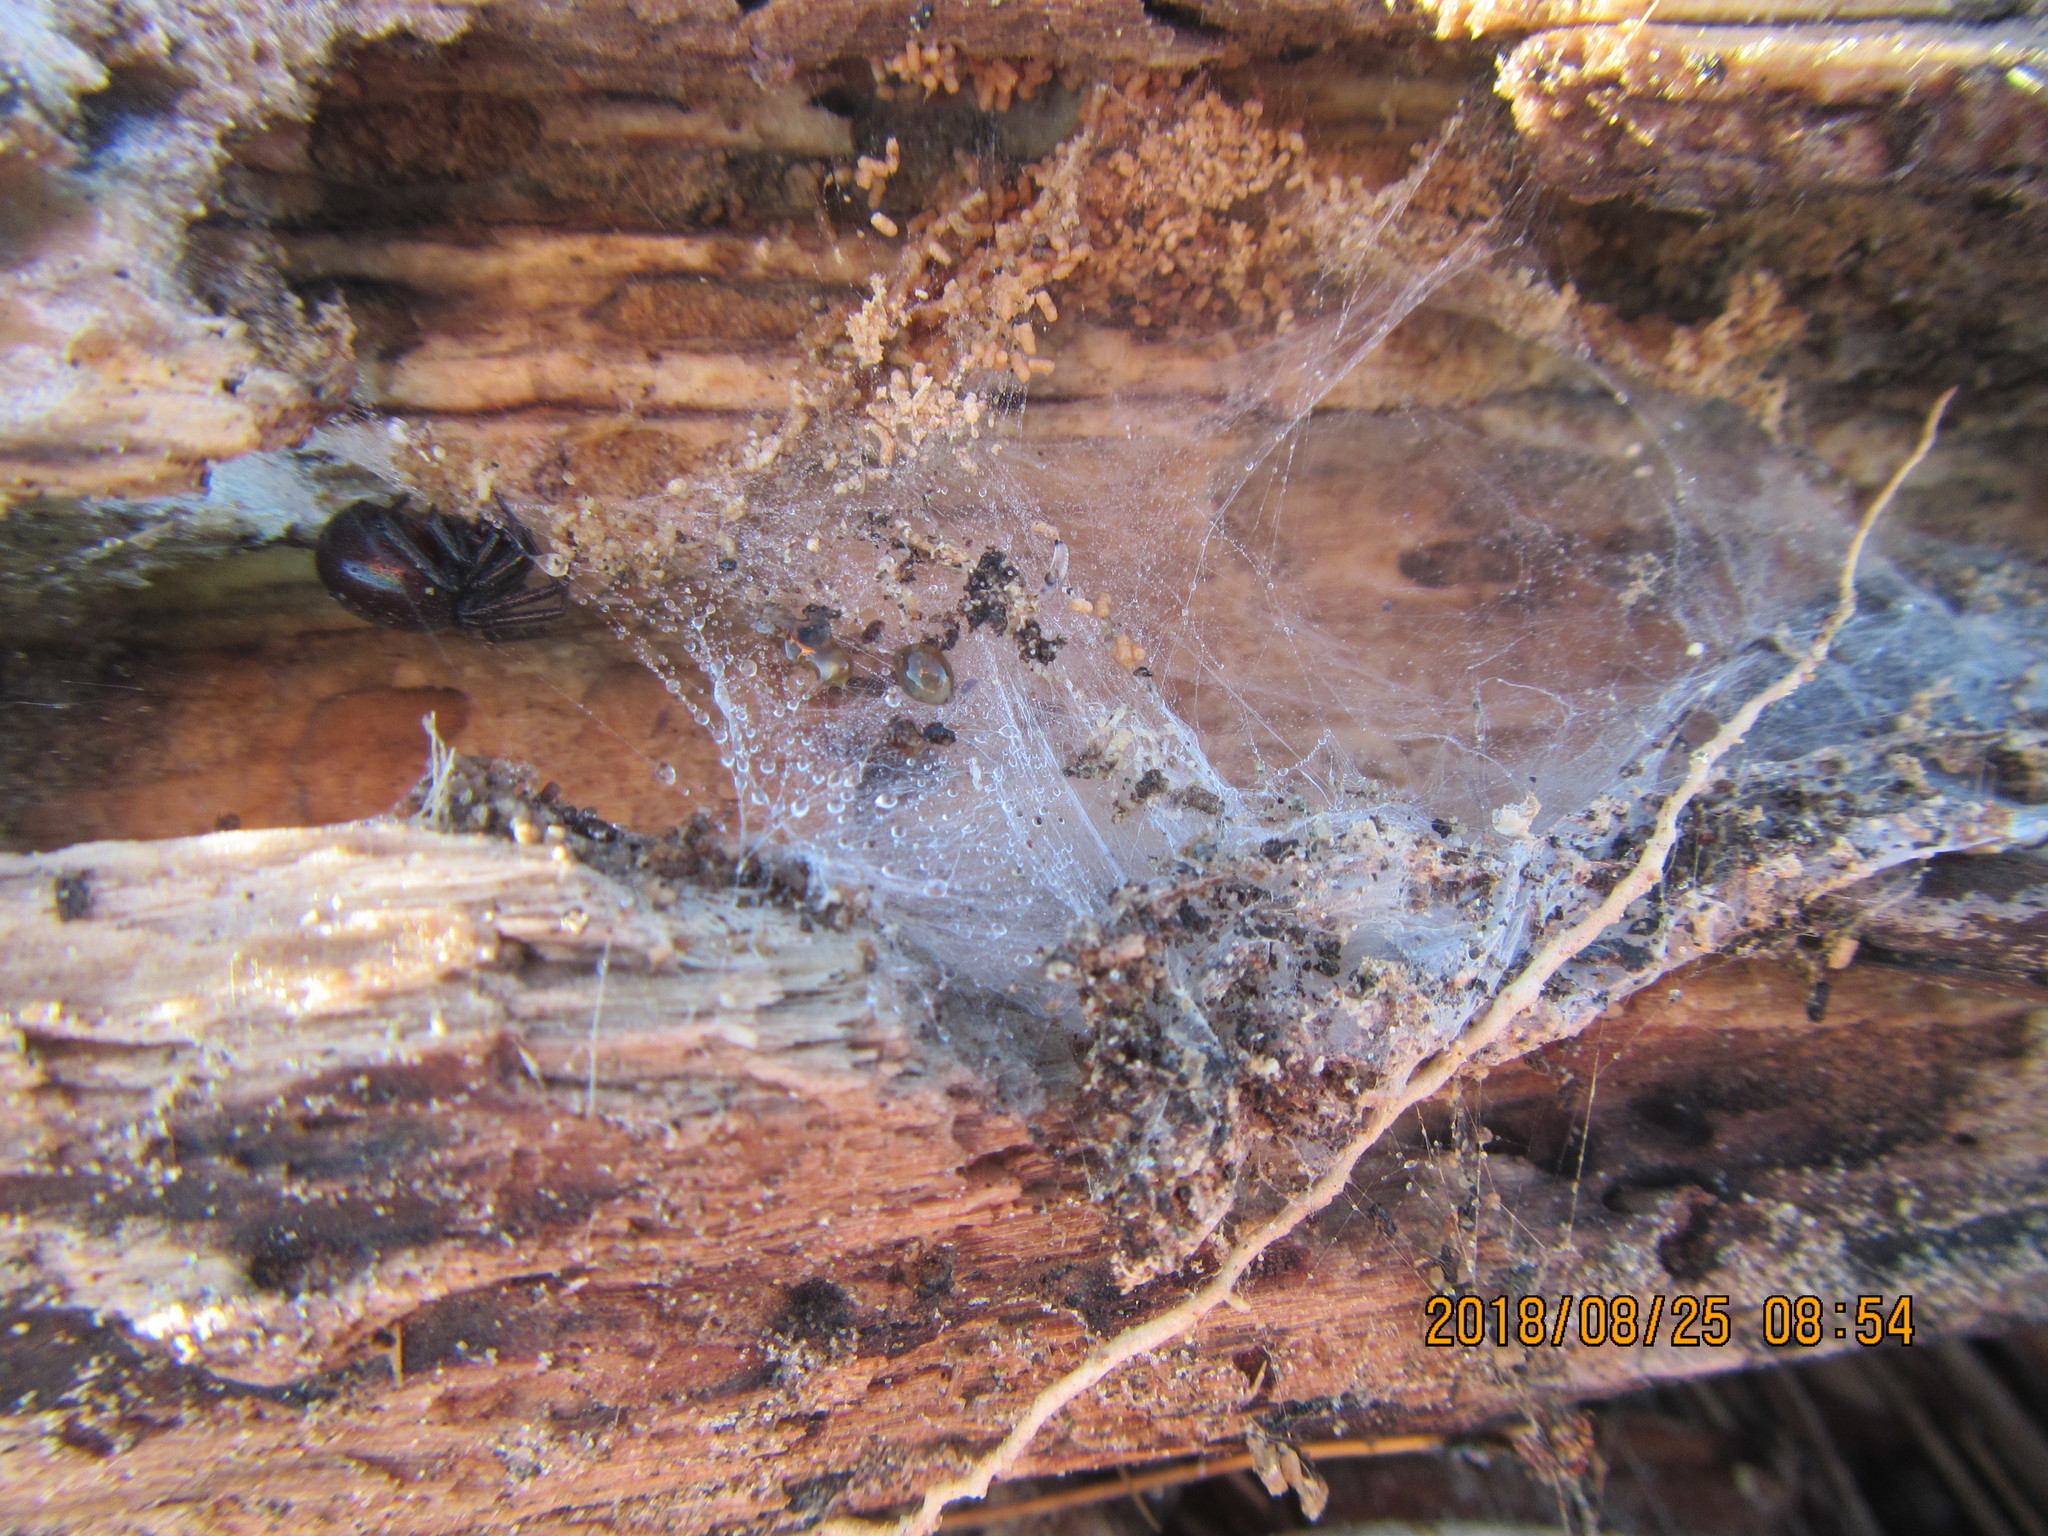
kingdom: Animalia
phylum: Arthropoda
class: Arachnida
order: Araneae
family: Theridiidae
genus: Steatoda
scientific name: Steatoda capensis
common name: Cobweb weaver
